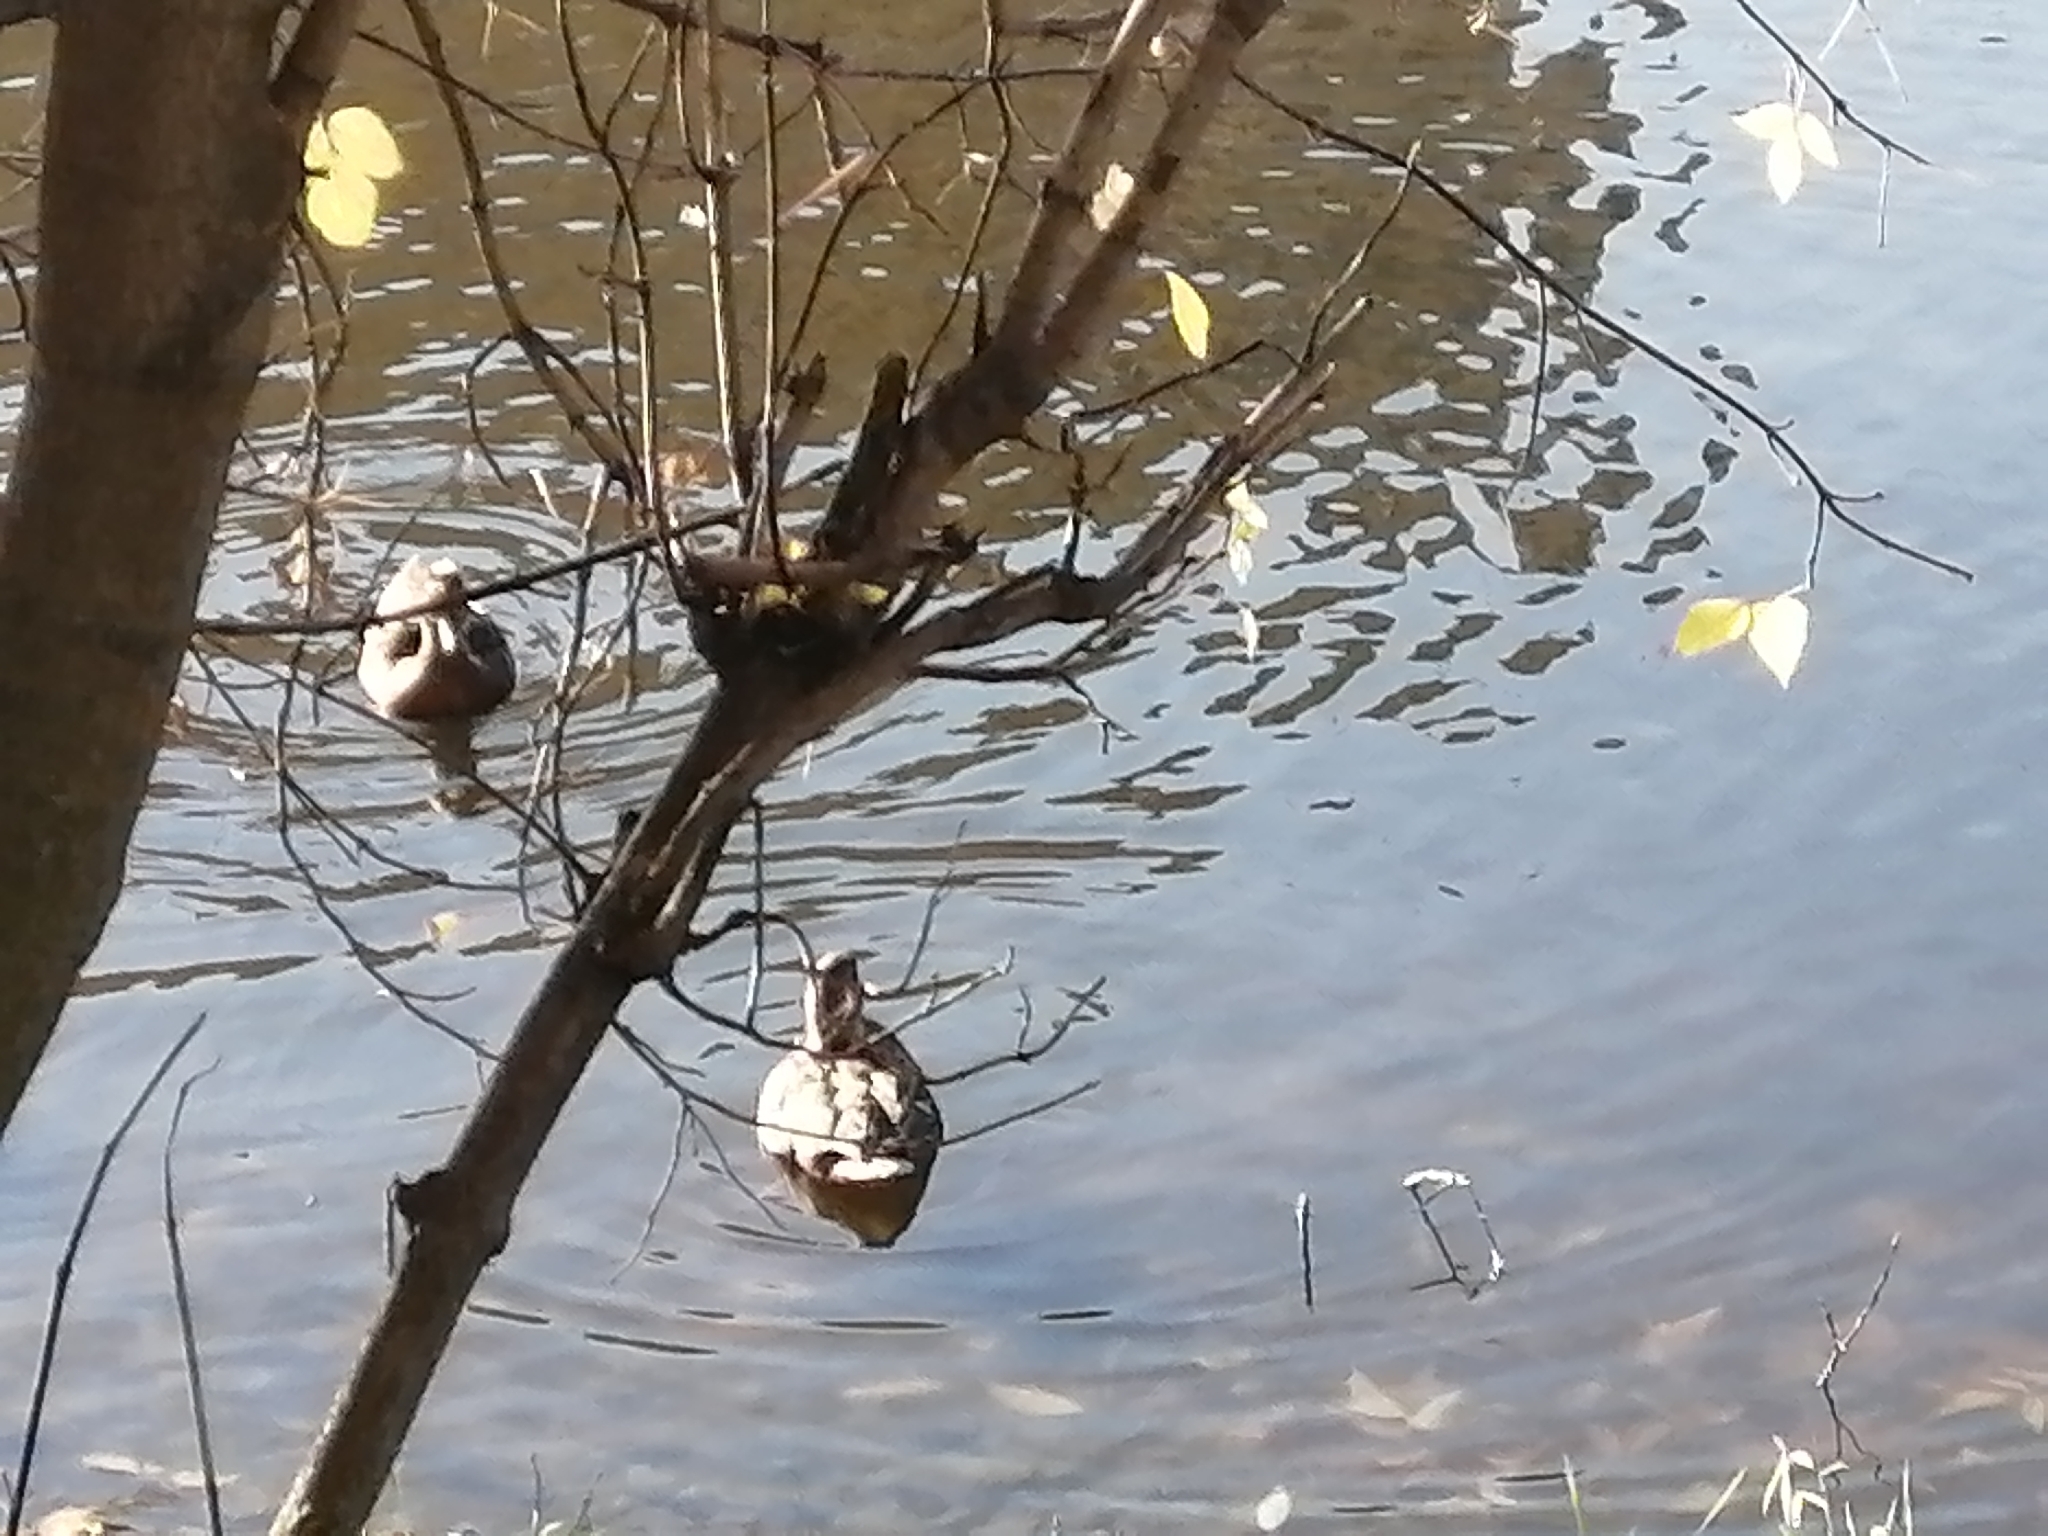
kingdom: Animalia
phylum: Chordata
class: Aves
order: Anseriformes
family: Anatidae
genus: Anas
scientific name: Anas platyrhynchos
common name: Mallard
